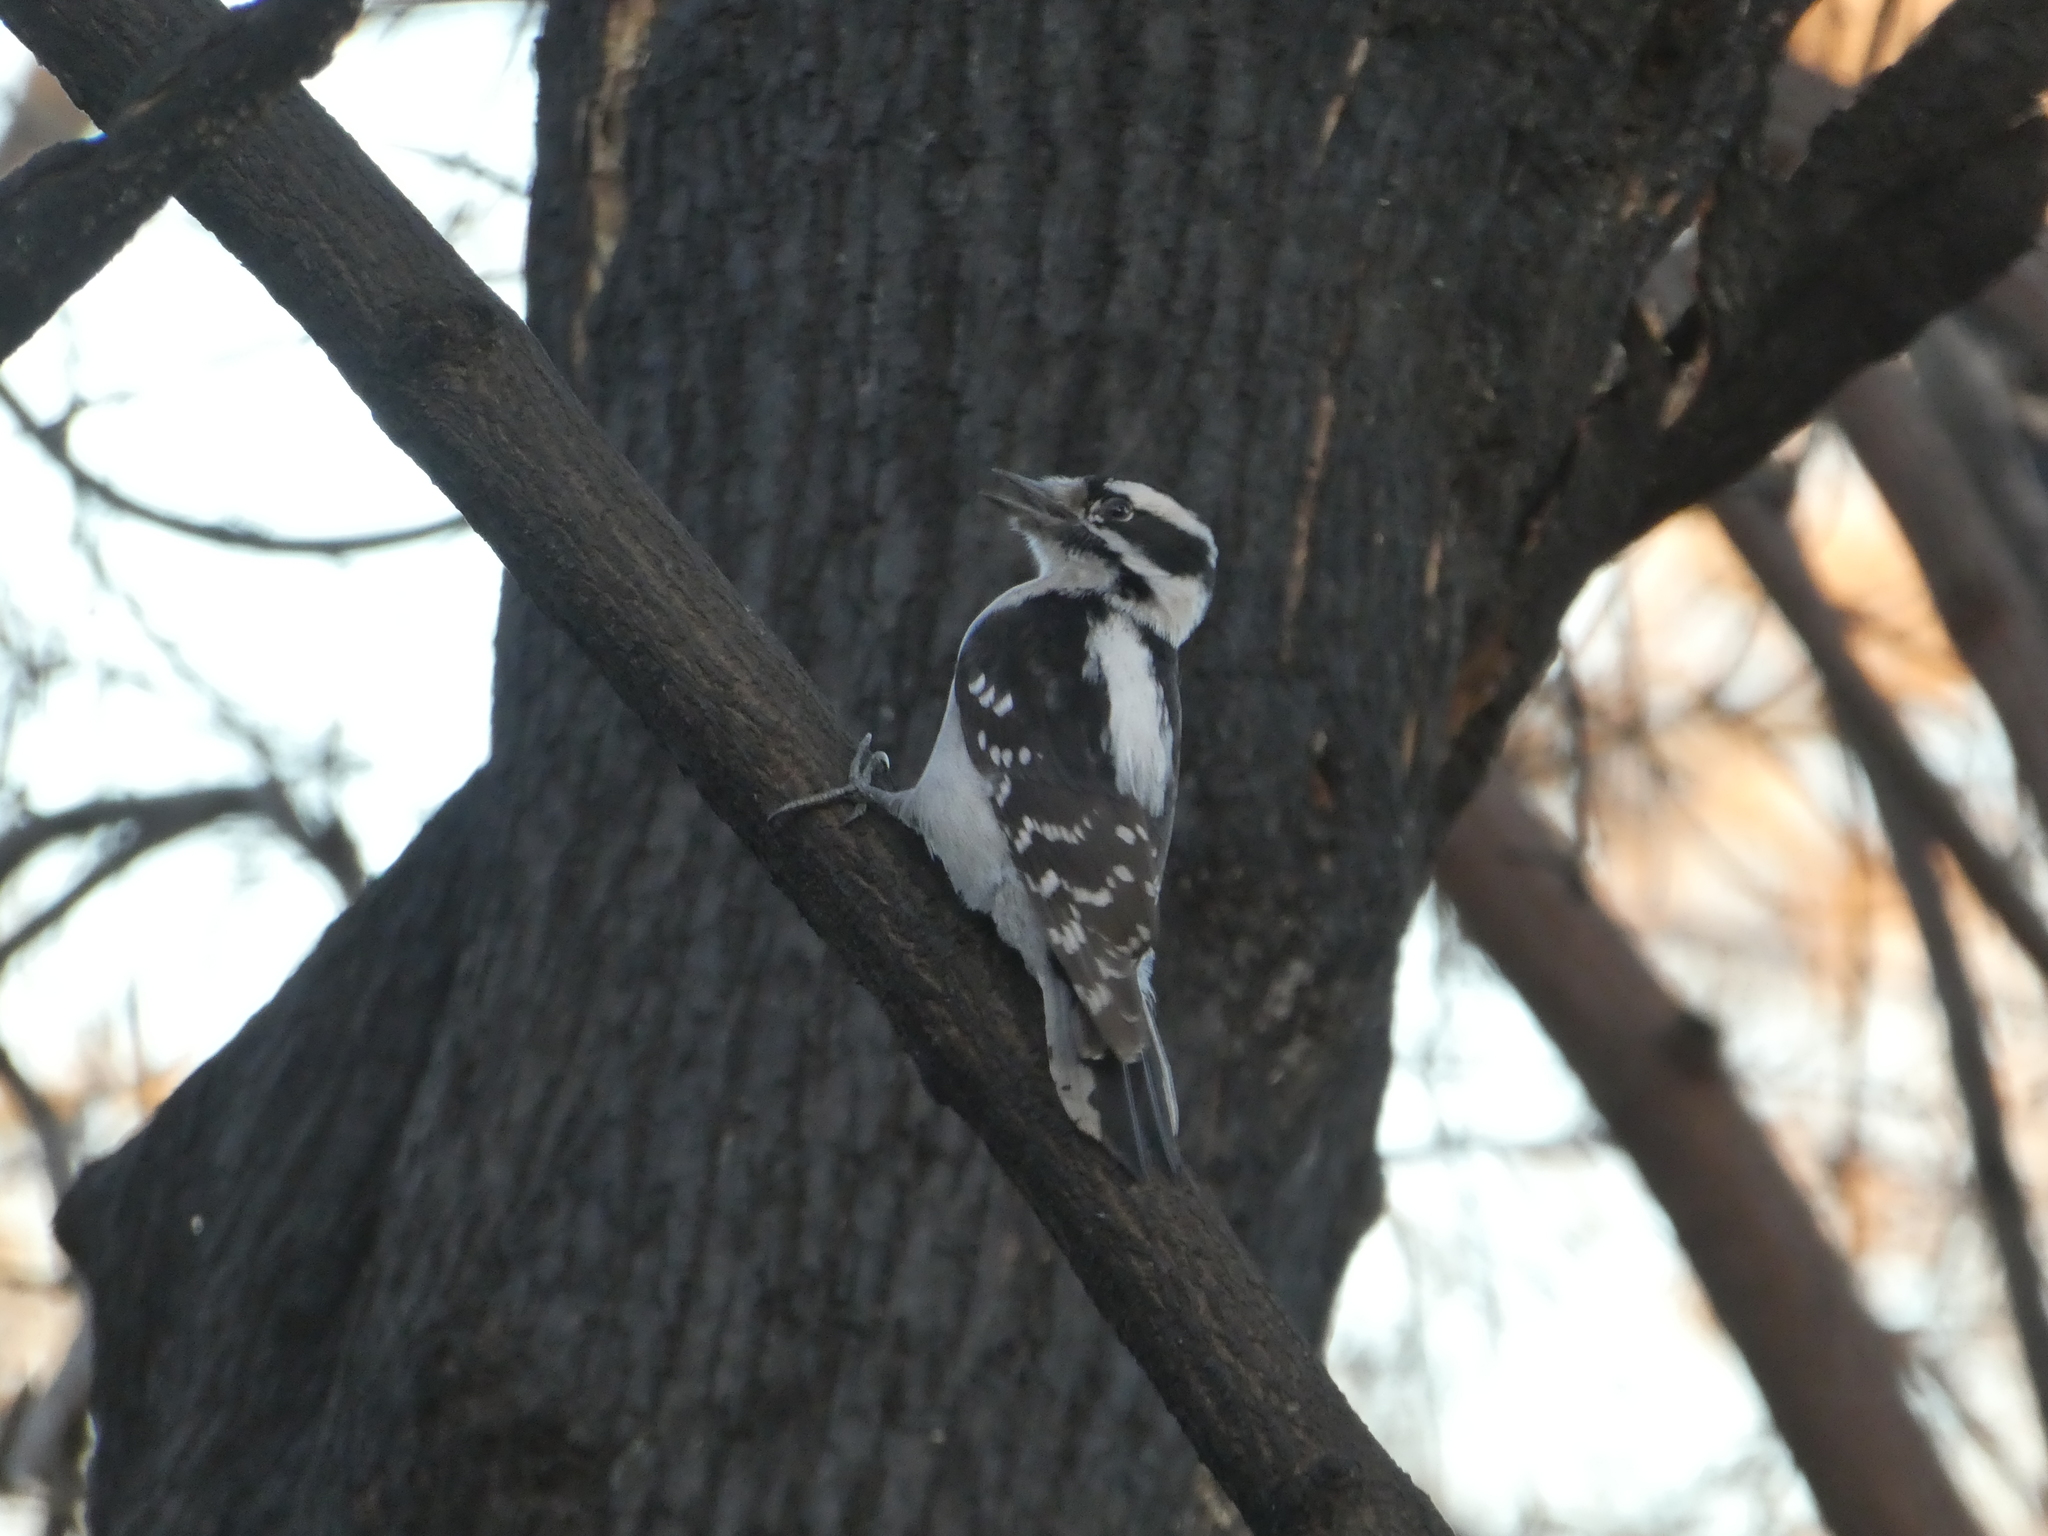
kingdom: Animalia
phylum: Chordata
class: Aves
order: Piciformes
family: Picidae
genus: Dryobates
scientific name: Dryobates pubescens
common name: Downy woodpecker
